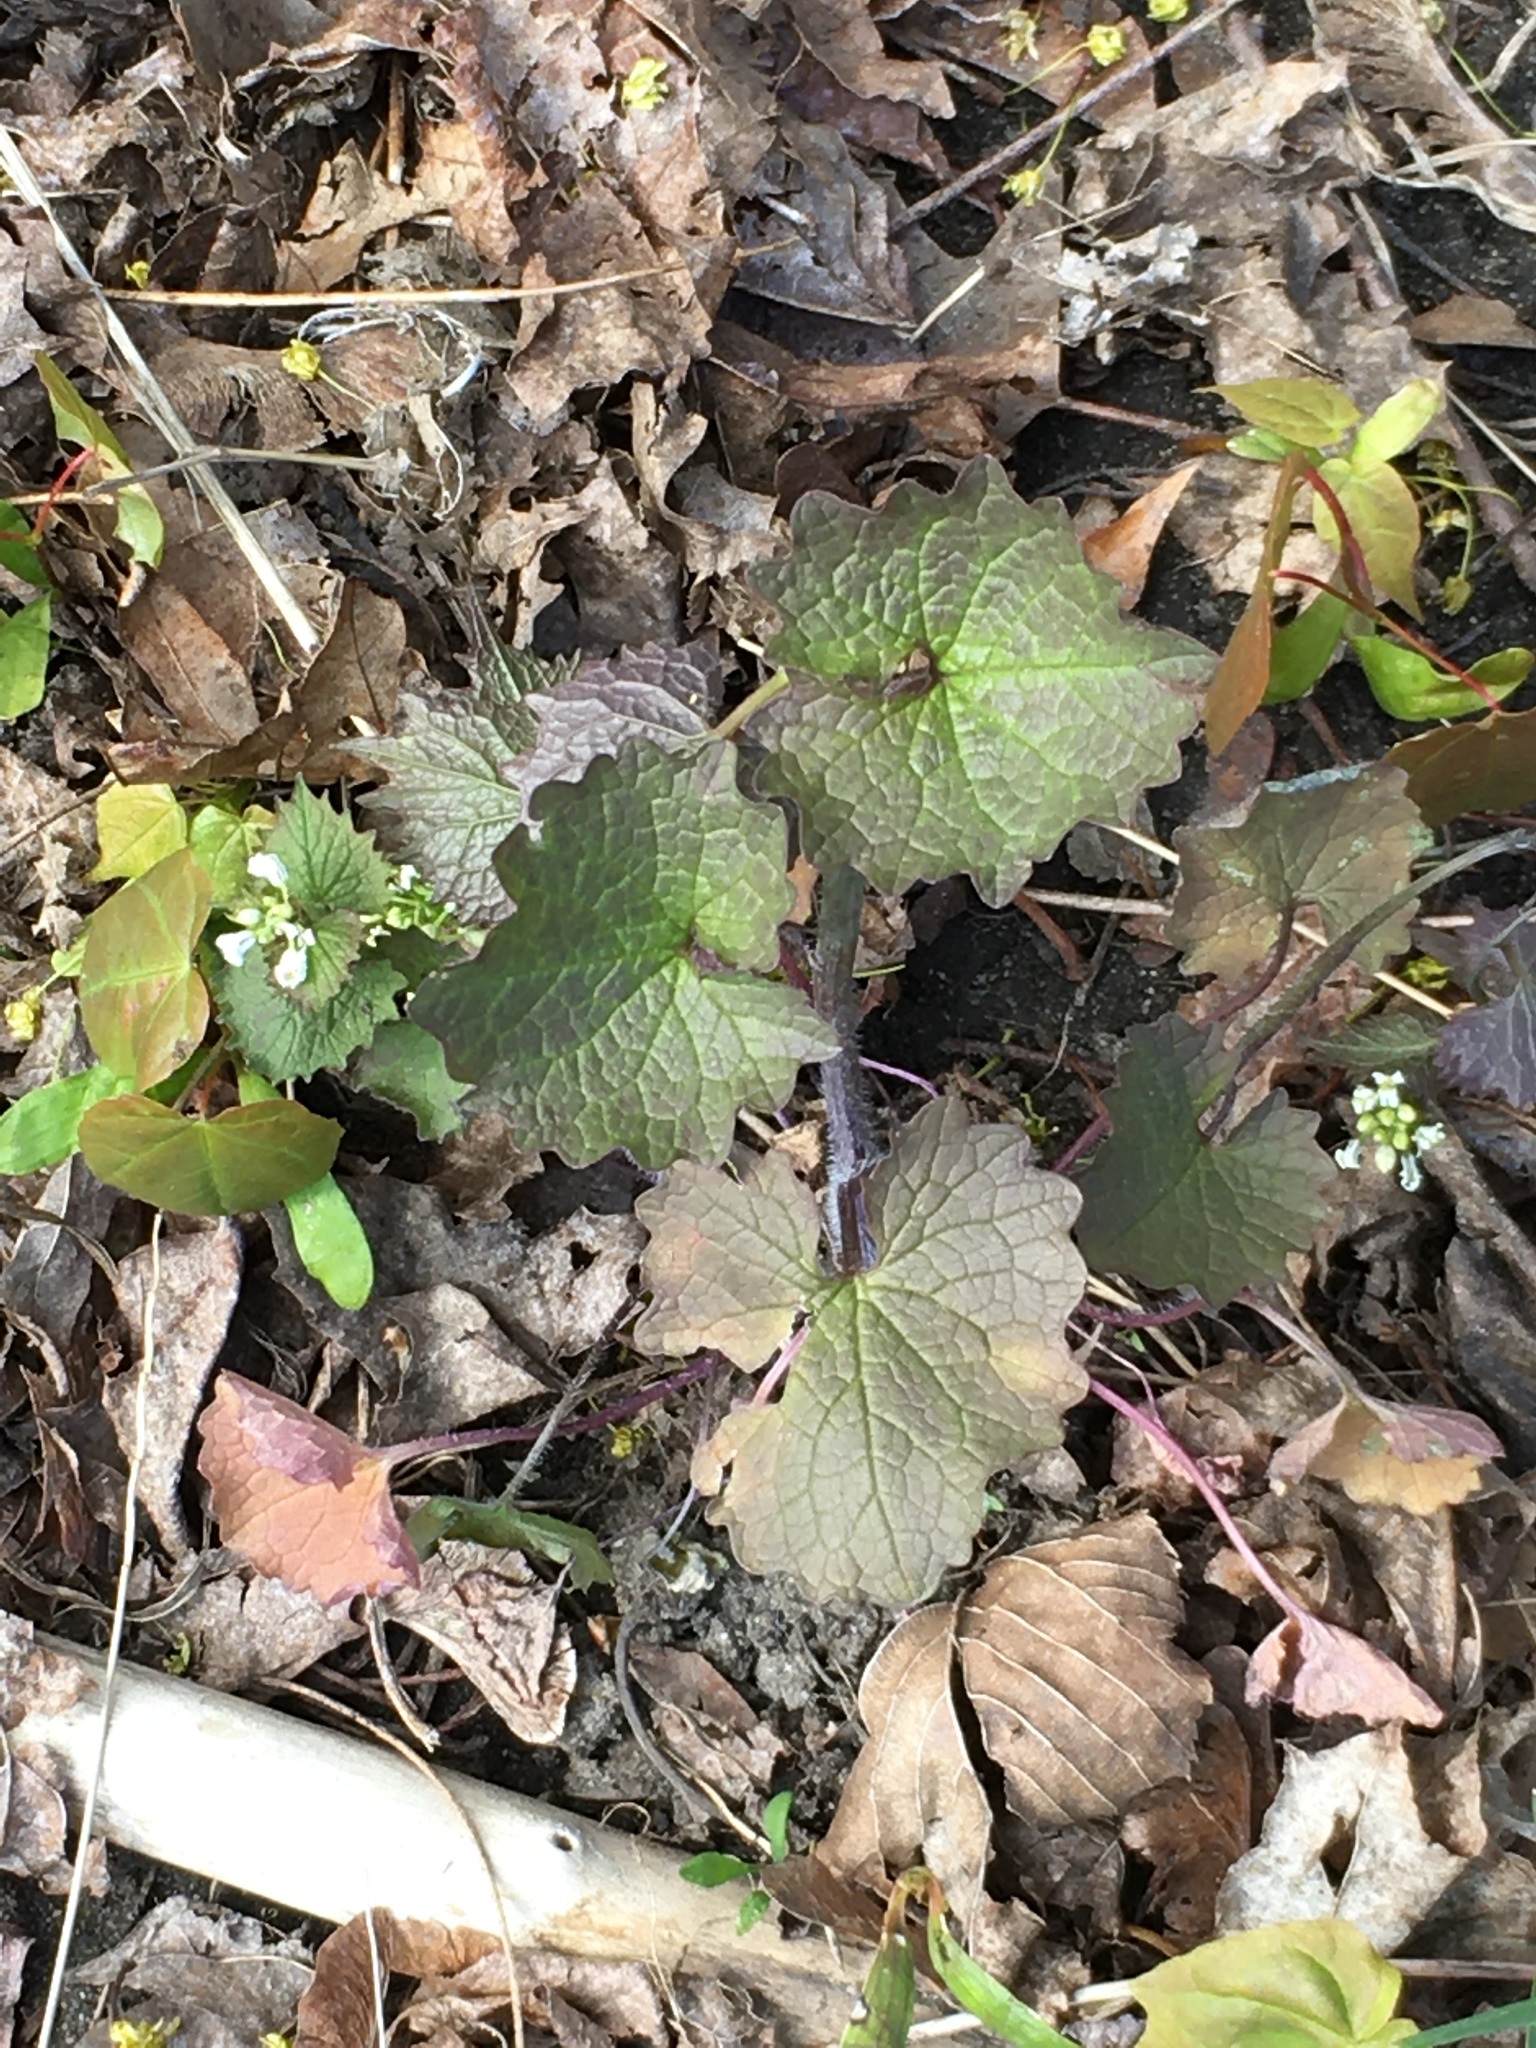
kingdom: Plantae
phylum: Tracheophyta
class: Magnoliopsida
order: Brassicales
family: Brassicaceae
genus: Alliaria
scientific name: Alliaria petiolata
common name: Garlic mustard
